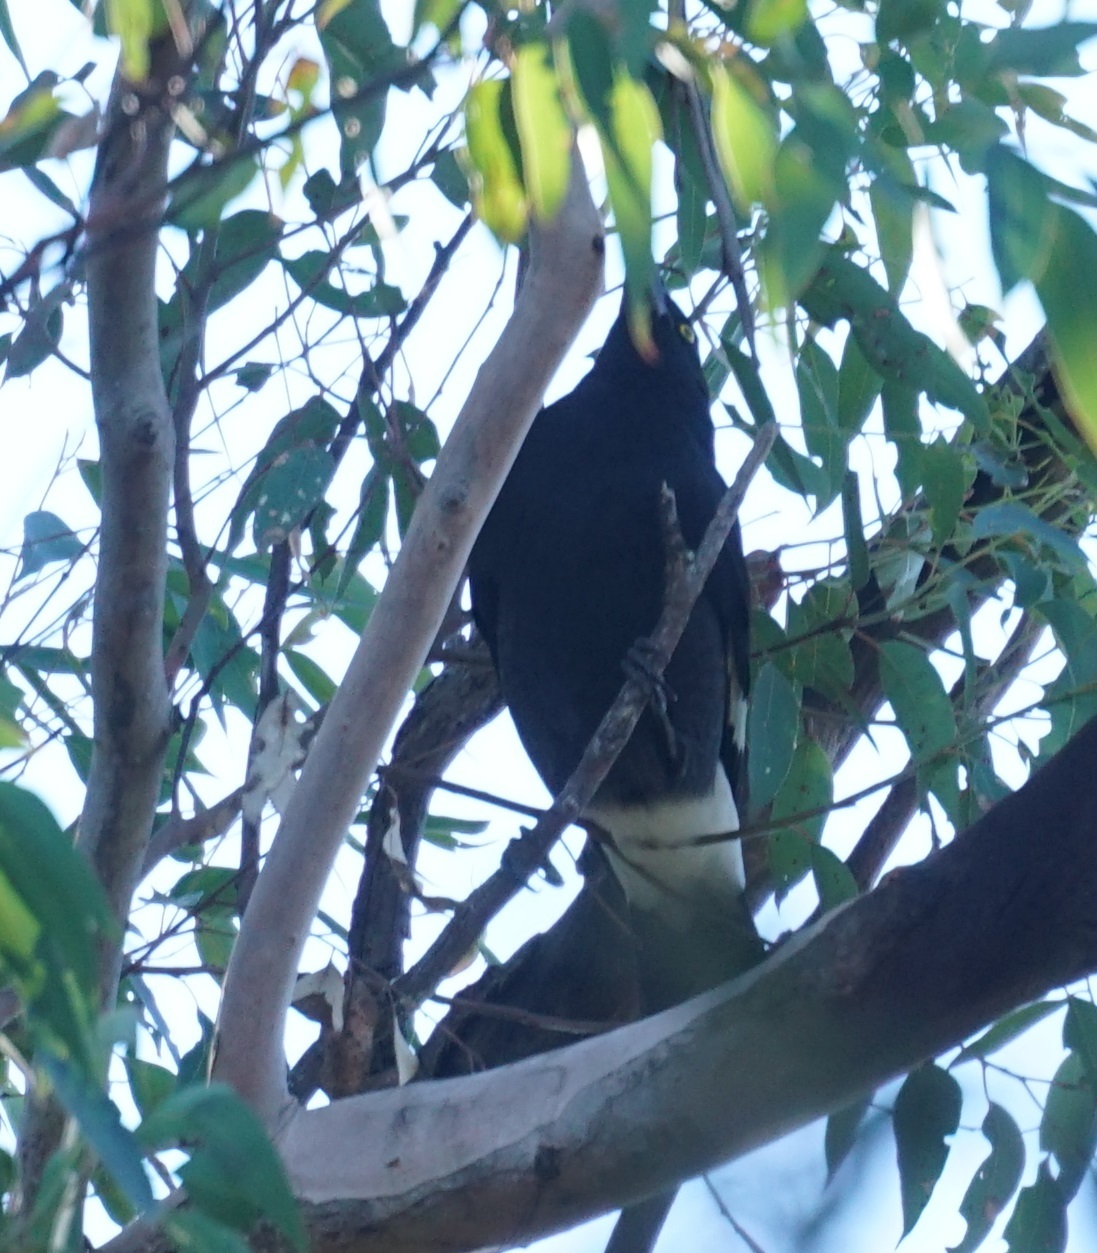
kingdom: Animalia
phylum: Chordata
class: Aves
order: Passeriformes
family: Cracticidae
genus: Strepera
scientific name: Strepera graculina
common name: Pied currawong
